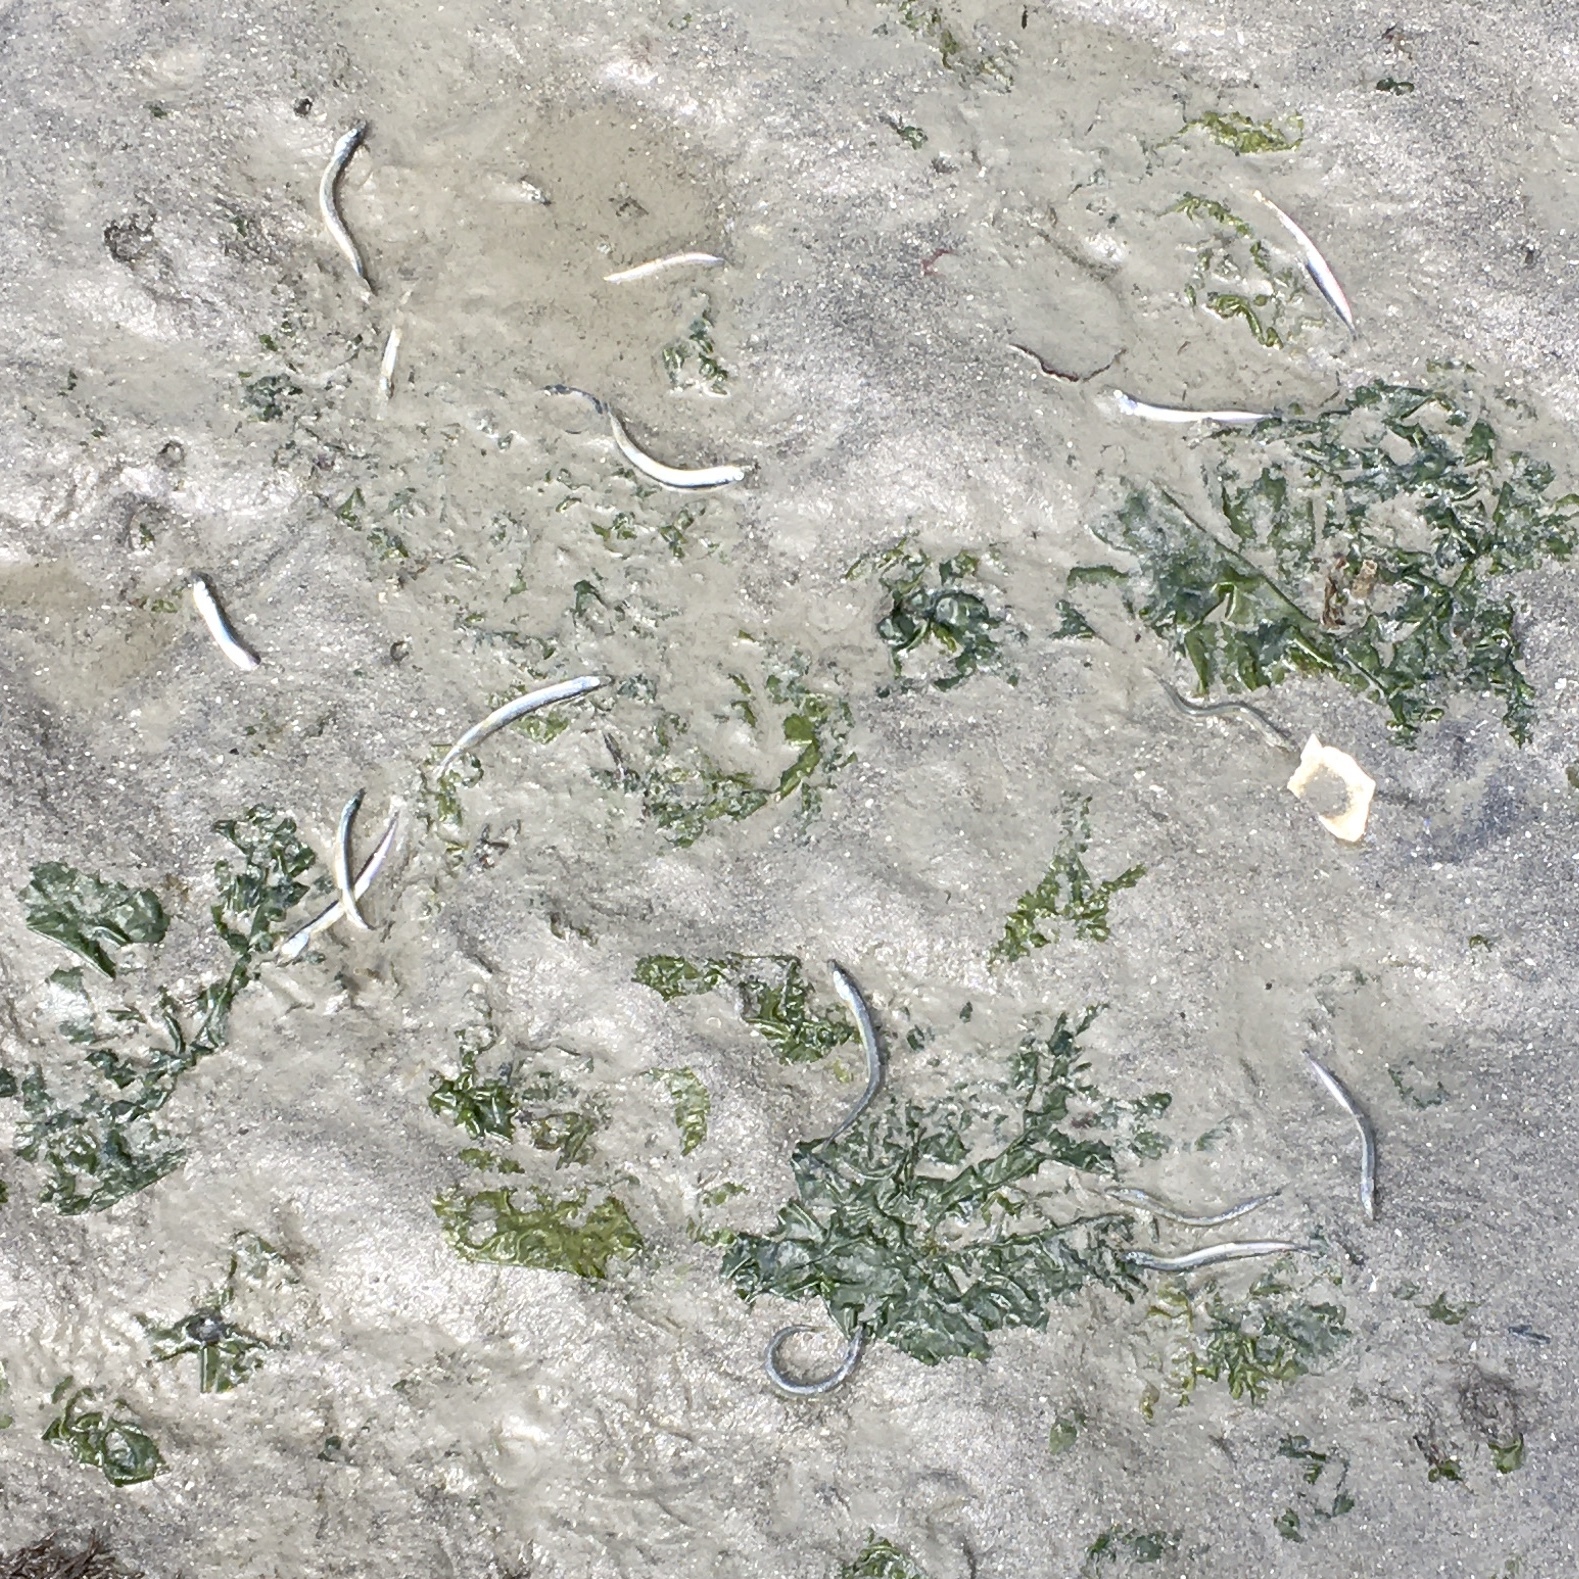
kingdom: Animalia
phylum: Chordata
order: Perciformes
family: Ammodytidae
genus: Ammodytes
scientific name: Ammodytes personatus
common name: Japanese sand lance
